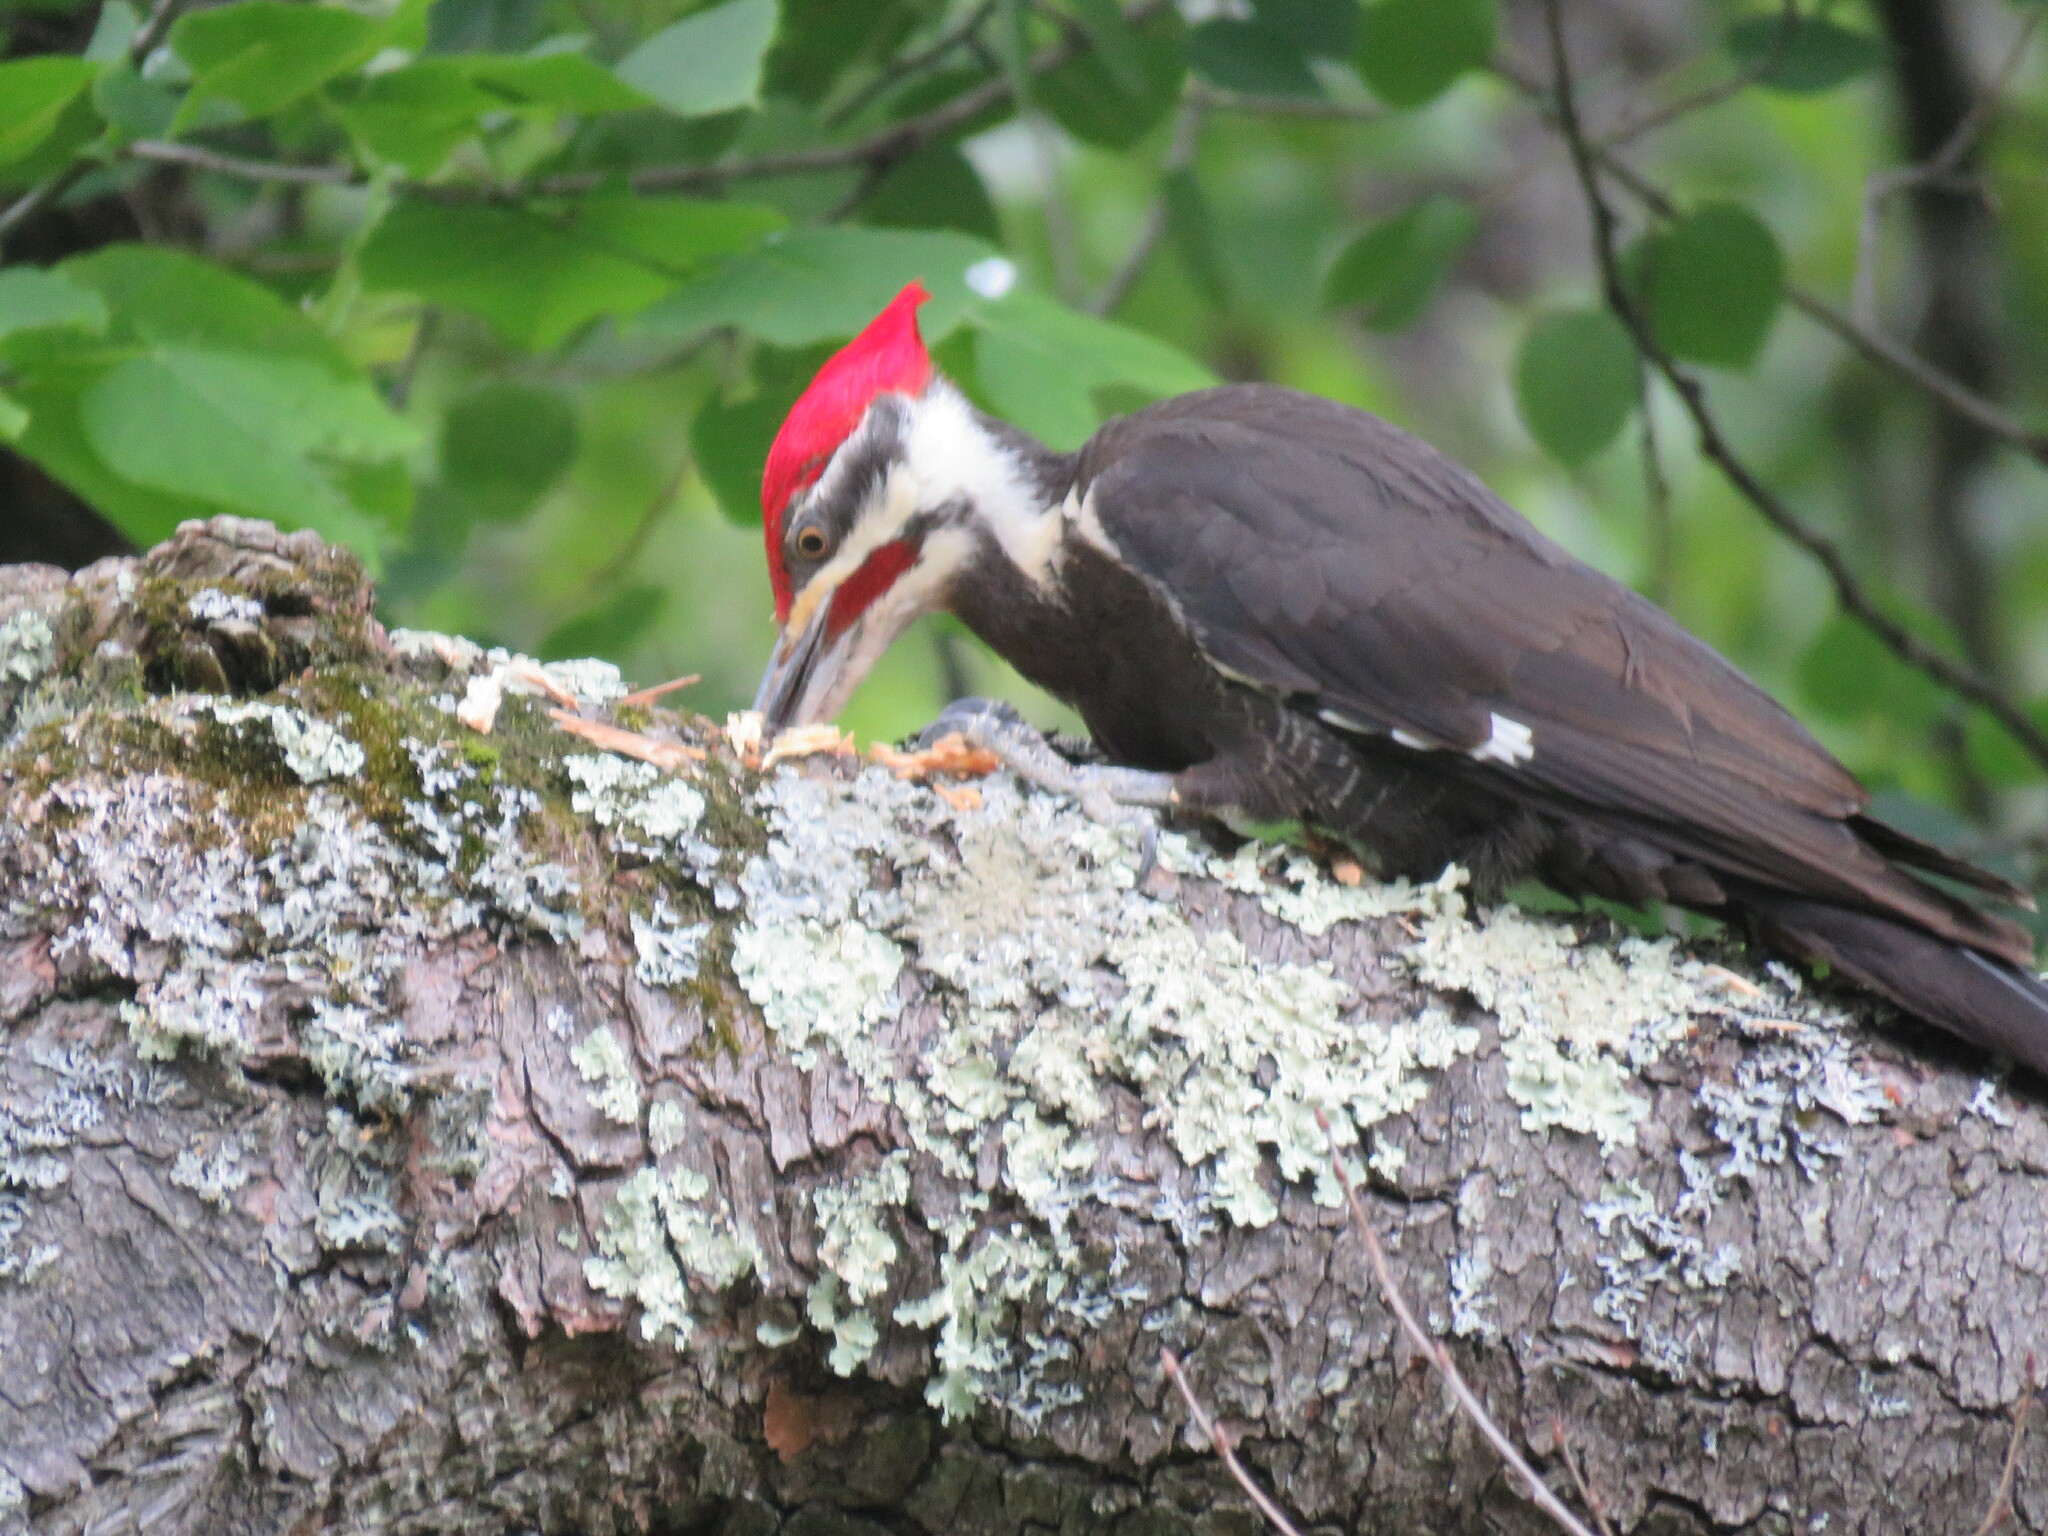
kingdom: Animalia
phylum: Chordata
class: Aves
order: Piciformes
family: Picidae
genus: Dryocopus
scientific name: Dryocopus pileatus
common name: Pileated woodpecker
